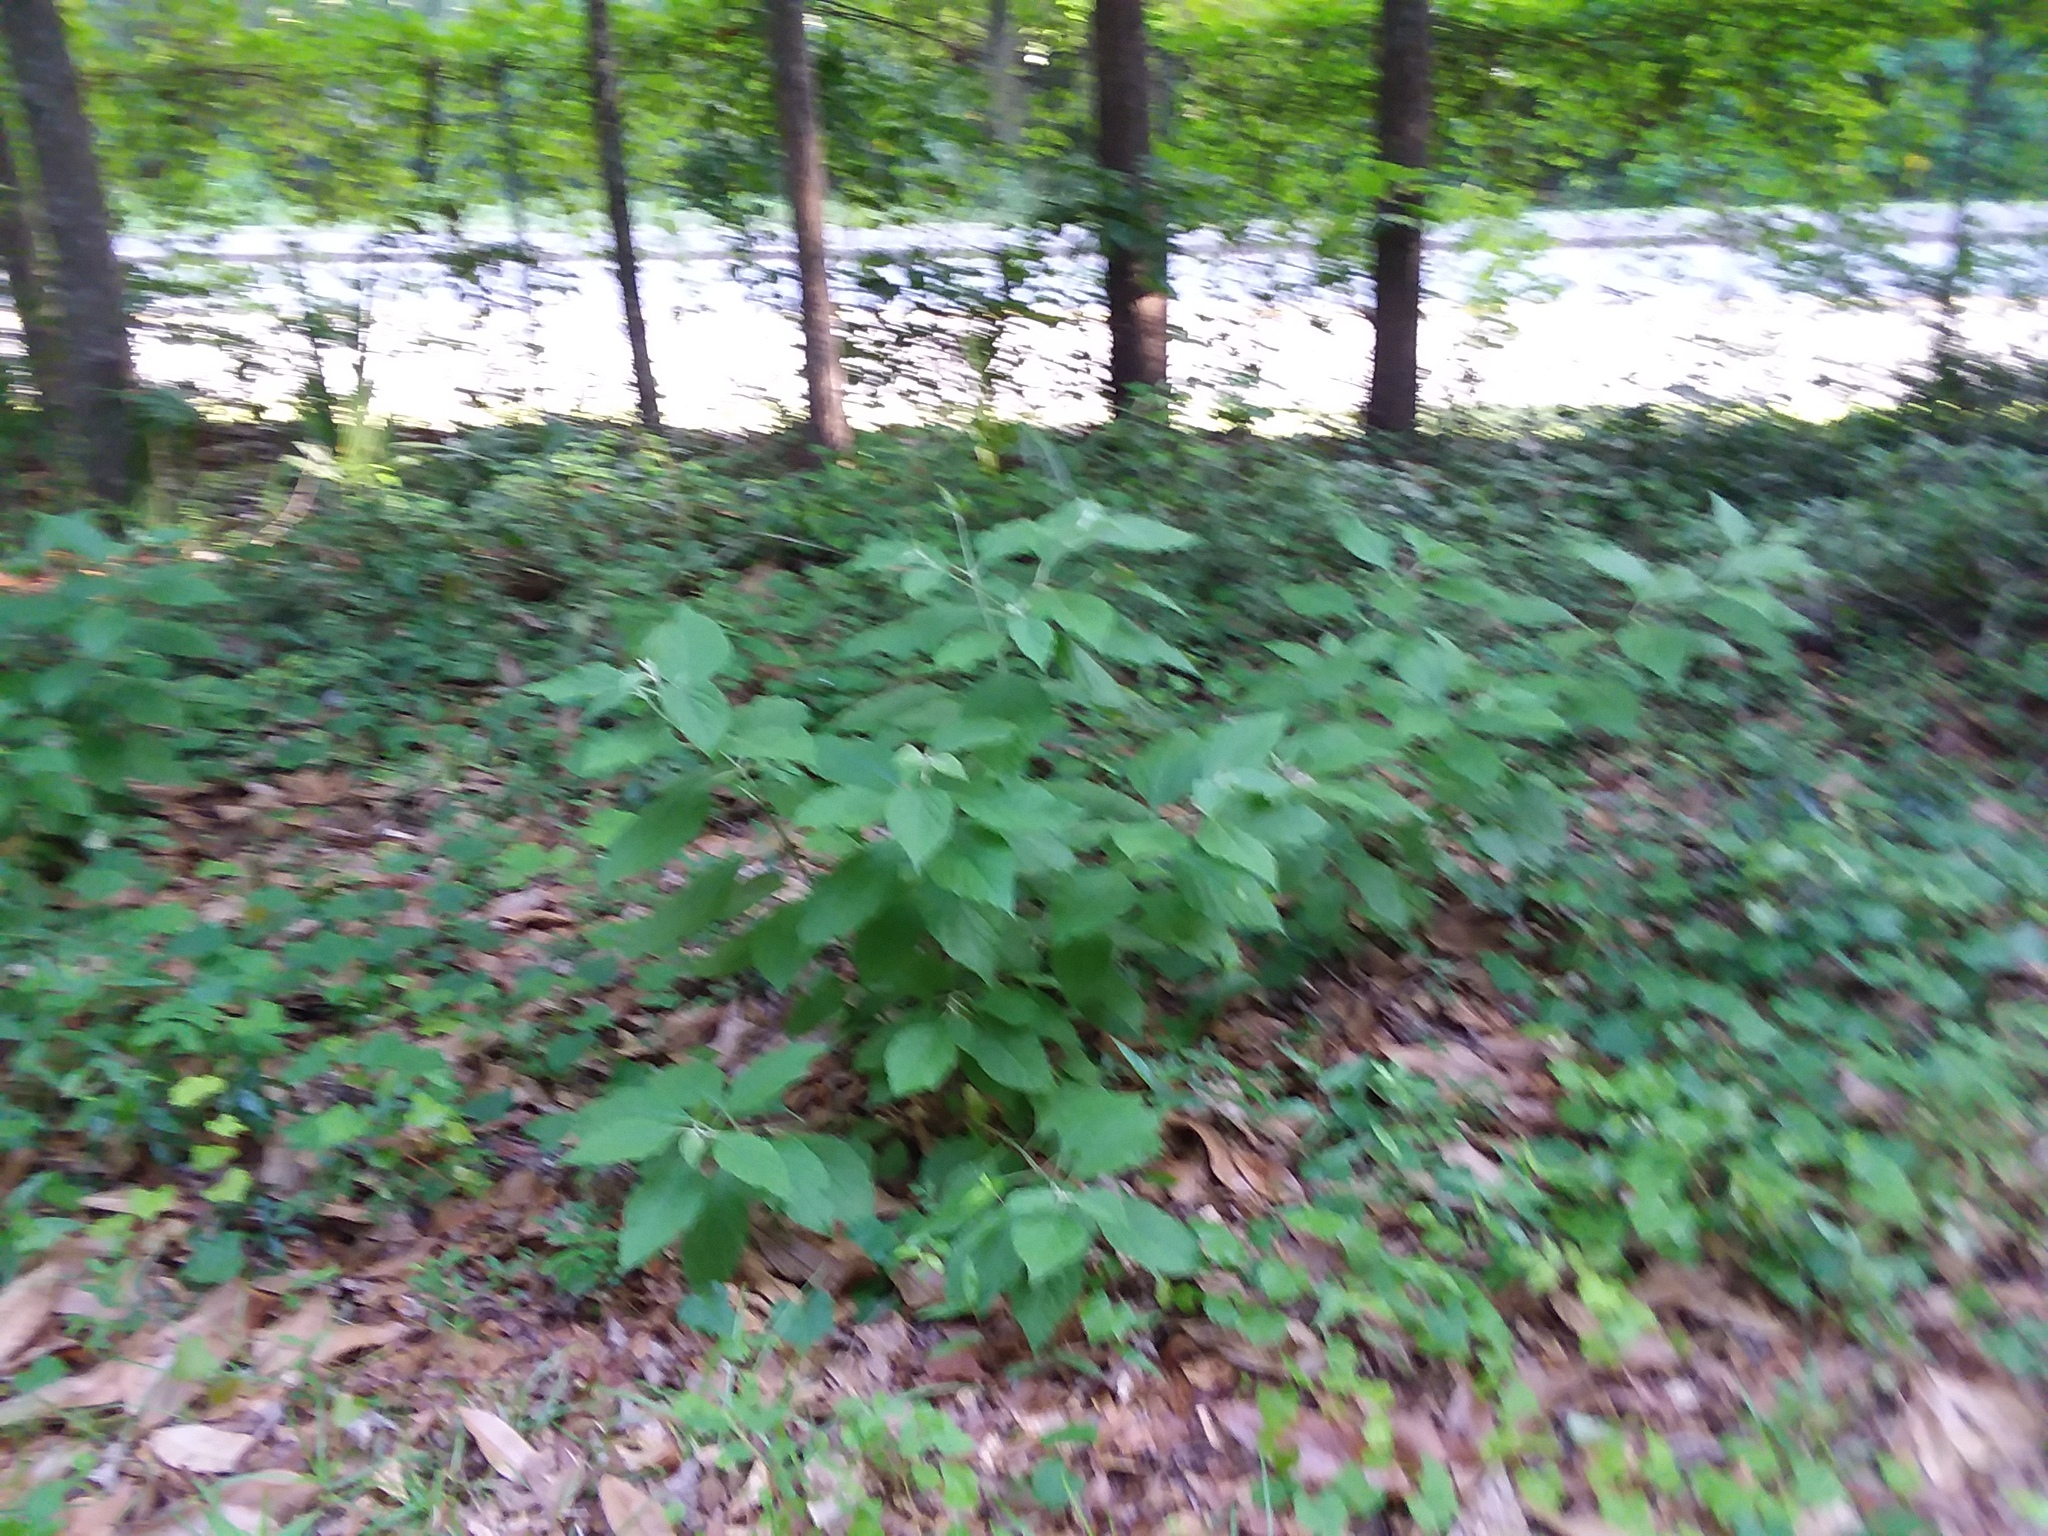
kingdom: Plantae
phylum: Tracheophyta
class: Magnoliopsida
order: Lamiales
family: Lamiaceae
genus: Callicarpa
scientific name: Callicarpa americana
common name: American beautyberry
